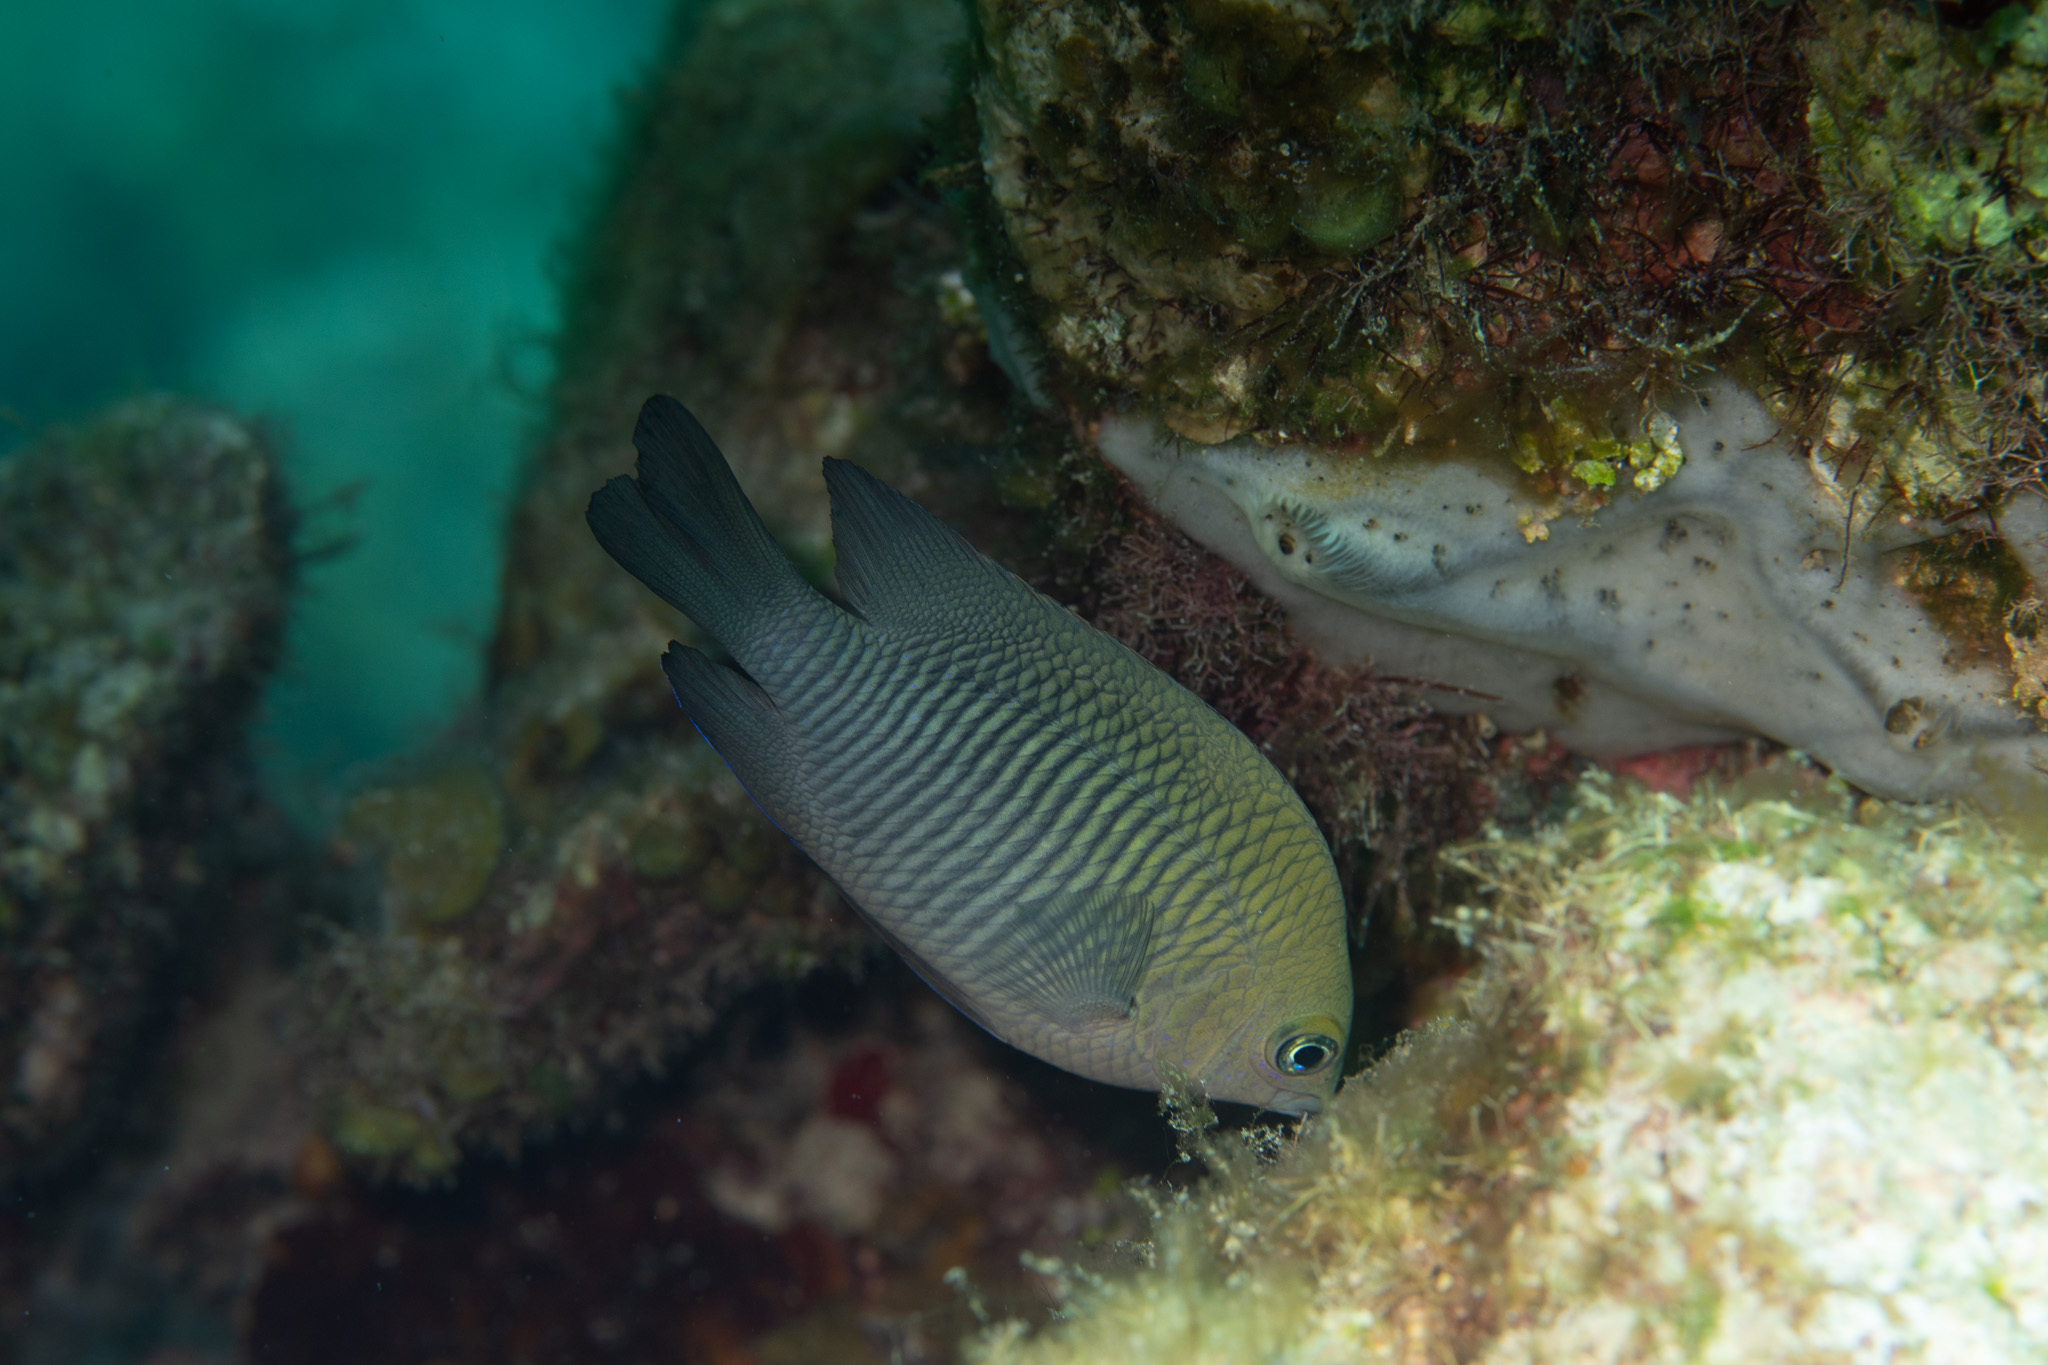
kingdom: Animalia
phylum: Chordata
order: Perciformes
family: Pomacentridae
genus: Stegastes
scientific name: Stegastes diencaeus
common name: Longfin damselfish
